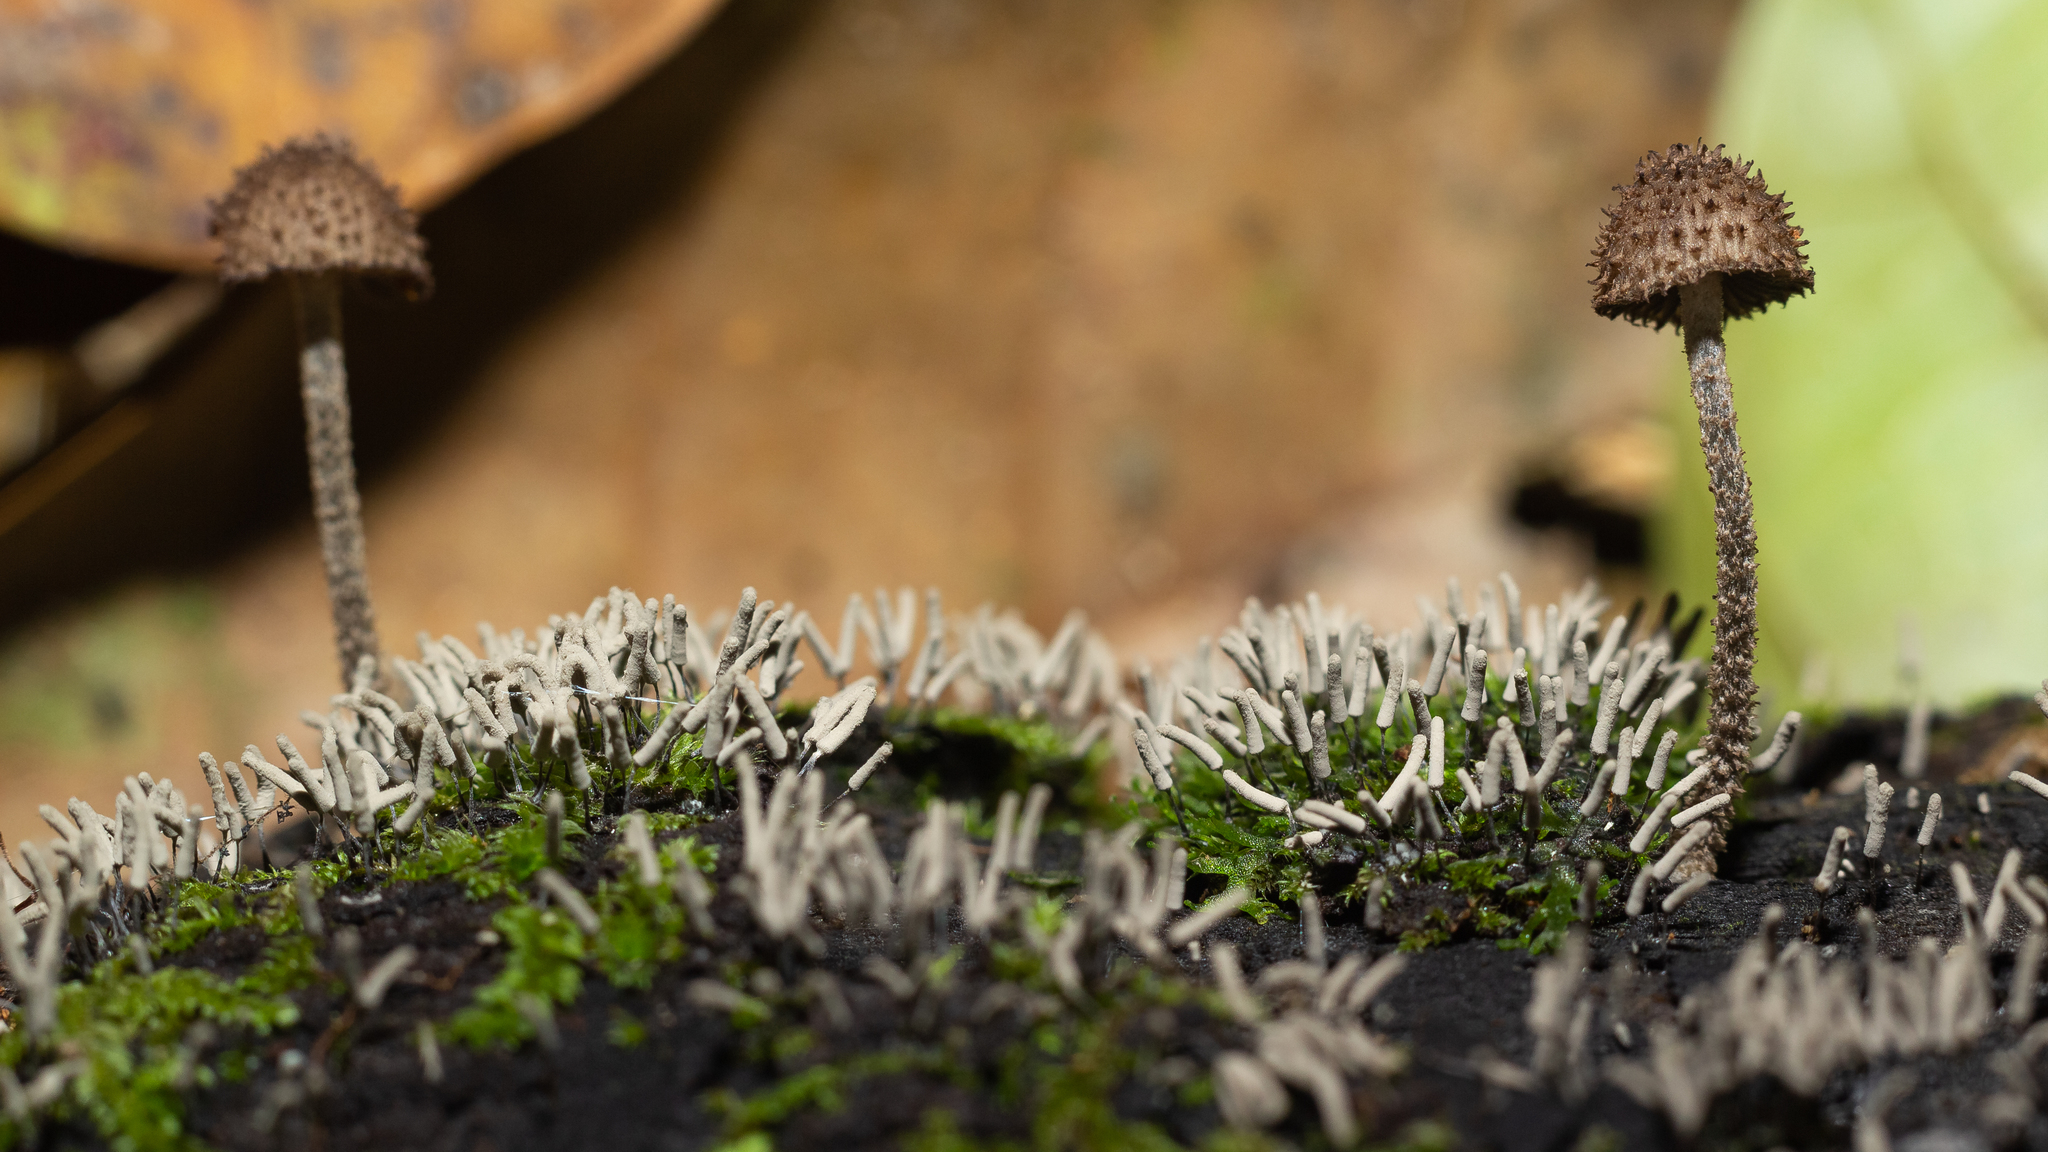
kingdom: Fungi
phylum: Basidiomycota
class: Agaricomycetes
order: Agaricales
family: Psathyrellaceae
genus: Cystoagaricus
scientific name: Cystoagaricus strobilomyces
